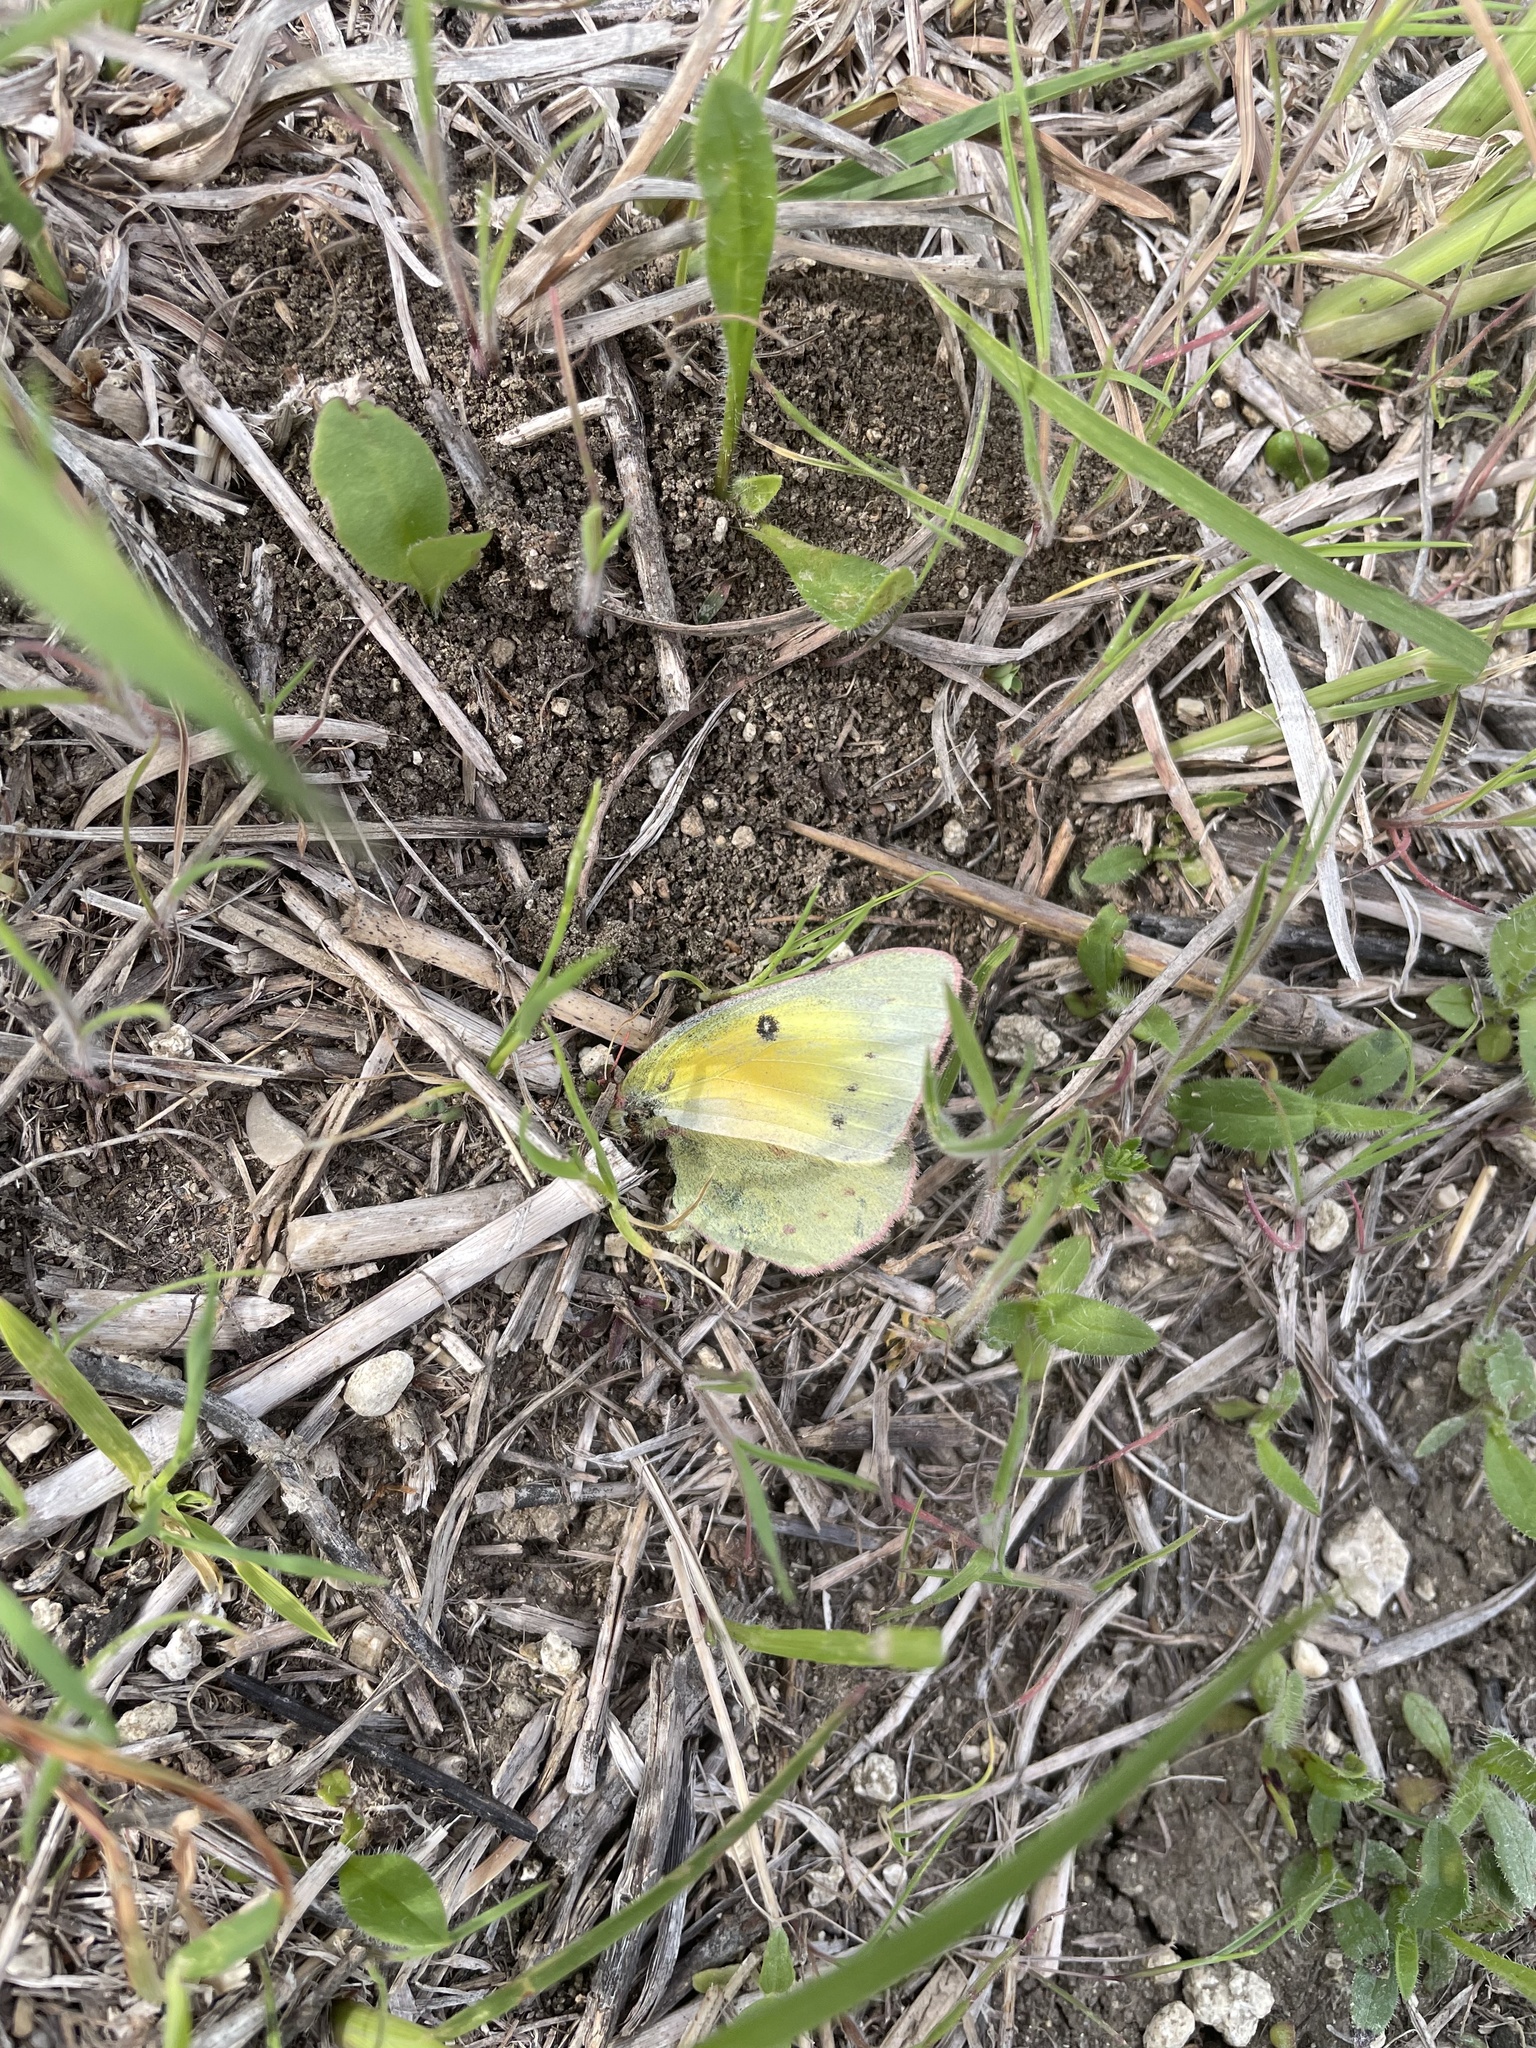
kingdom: Animalia
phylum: Arthropoda
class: Insecta
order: Lepidoptera
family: Pieridae
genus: Colias
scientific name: Colias eurytheme
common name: Alfalfa butterfly
